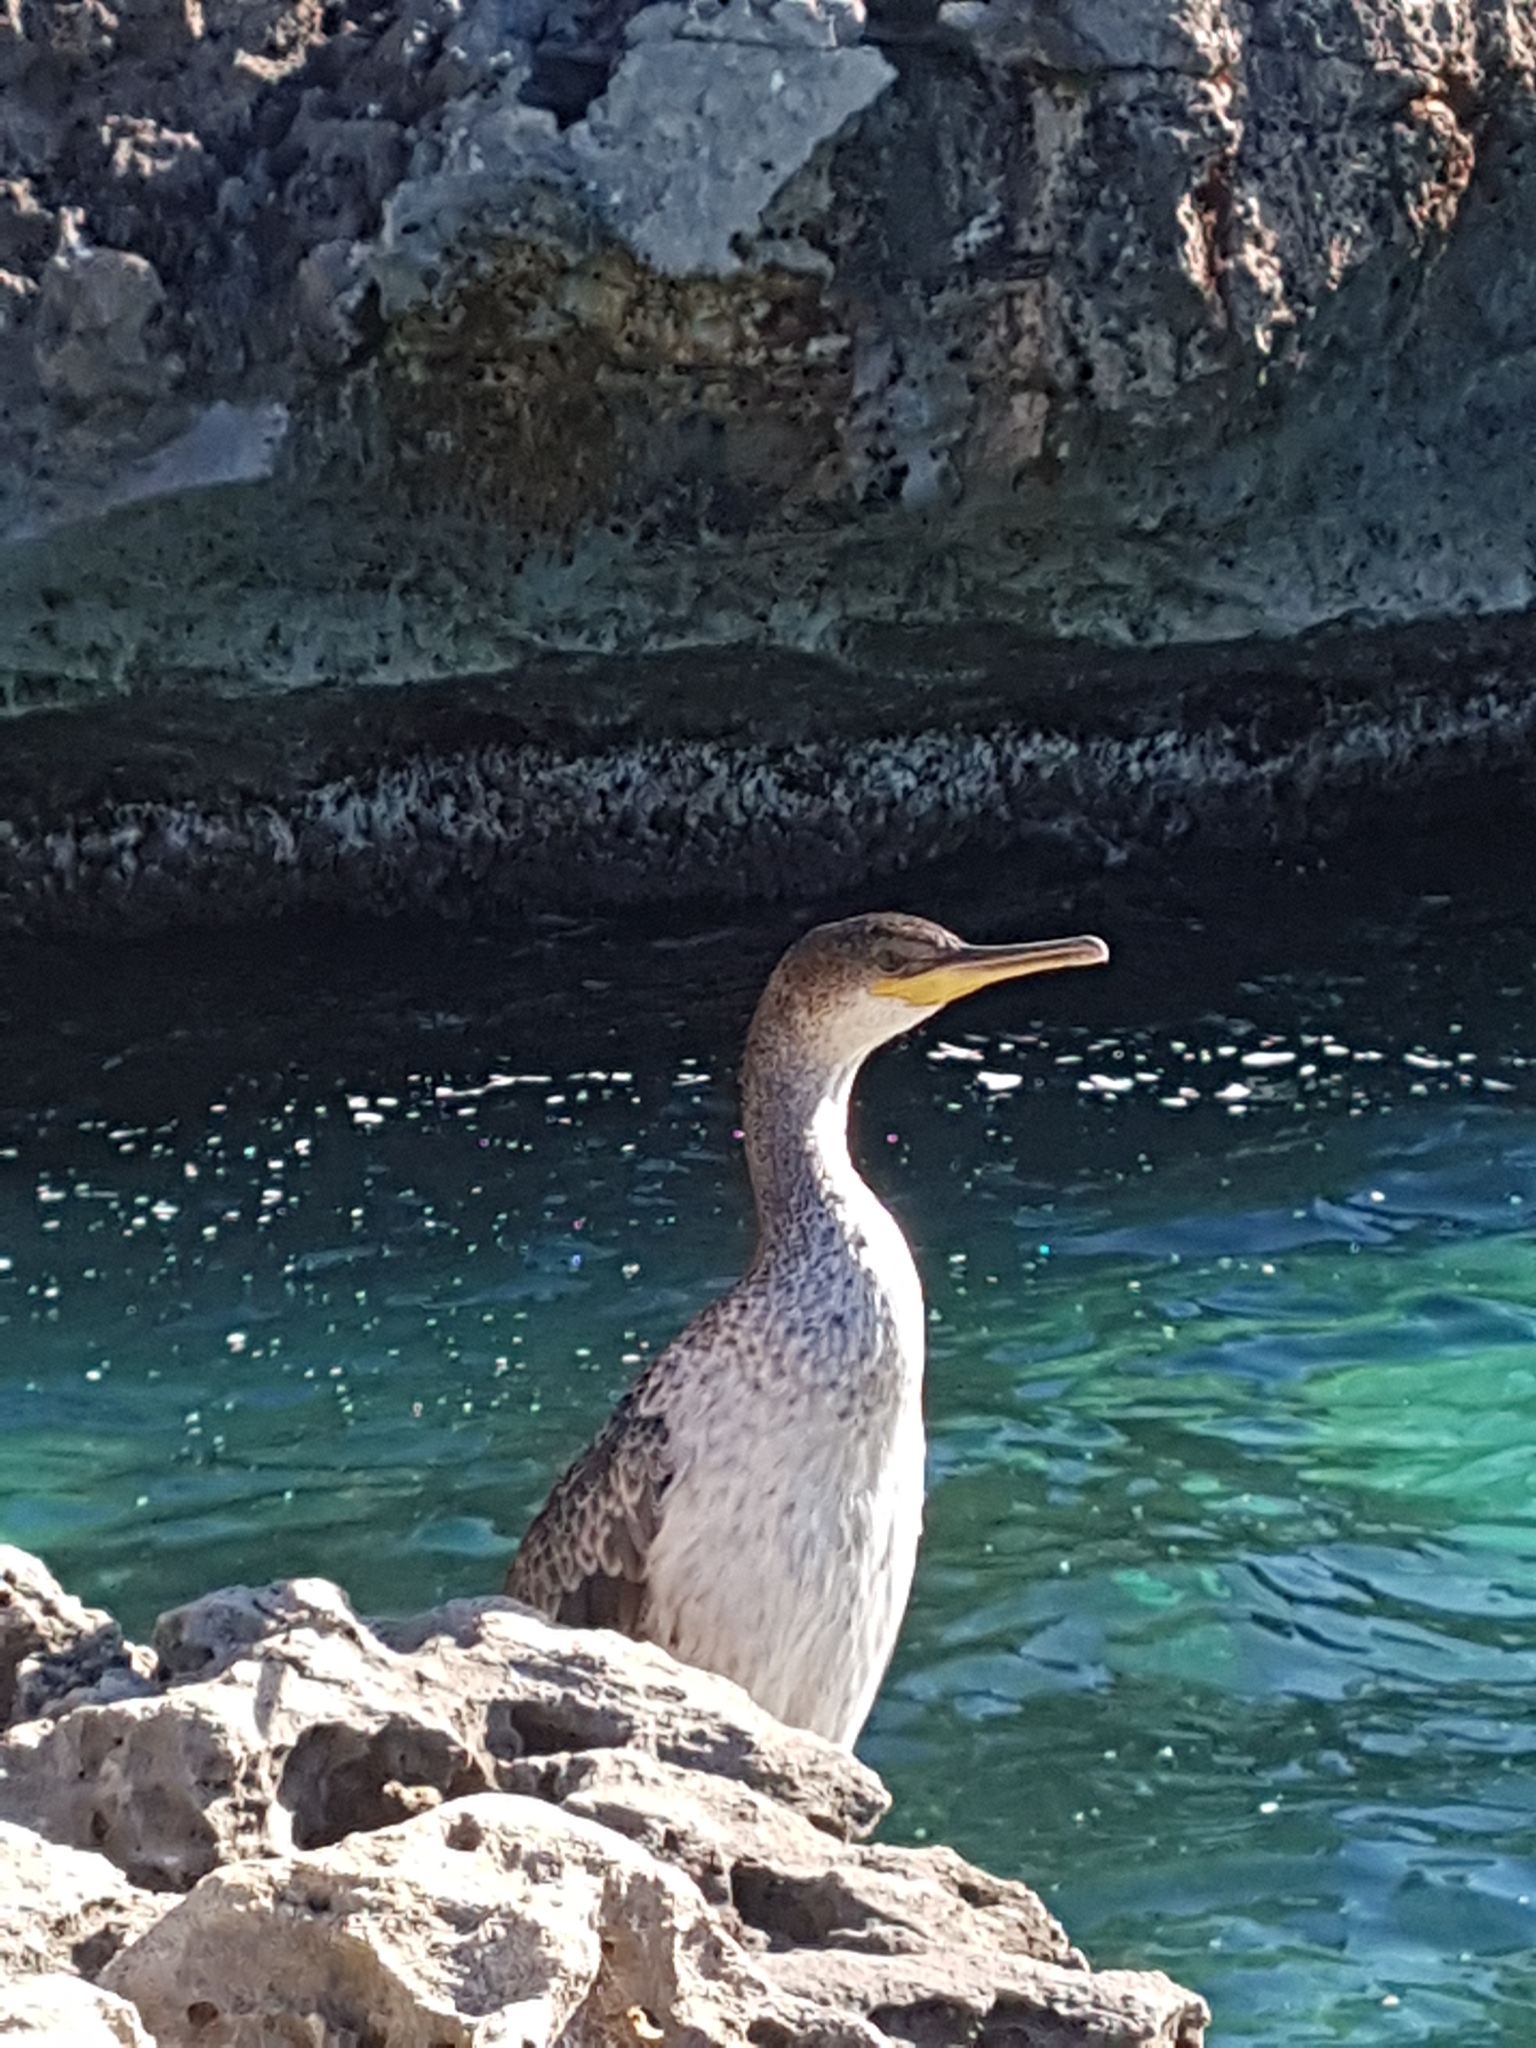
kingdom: Animalia
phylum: Chordata
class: Aves
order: Suliformes
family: Phalacrocoracidae
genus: Phalacrocorax
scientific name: Phalacrocorax aristotelis
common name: European shag
